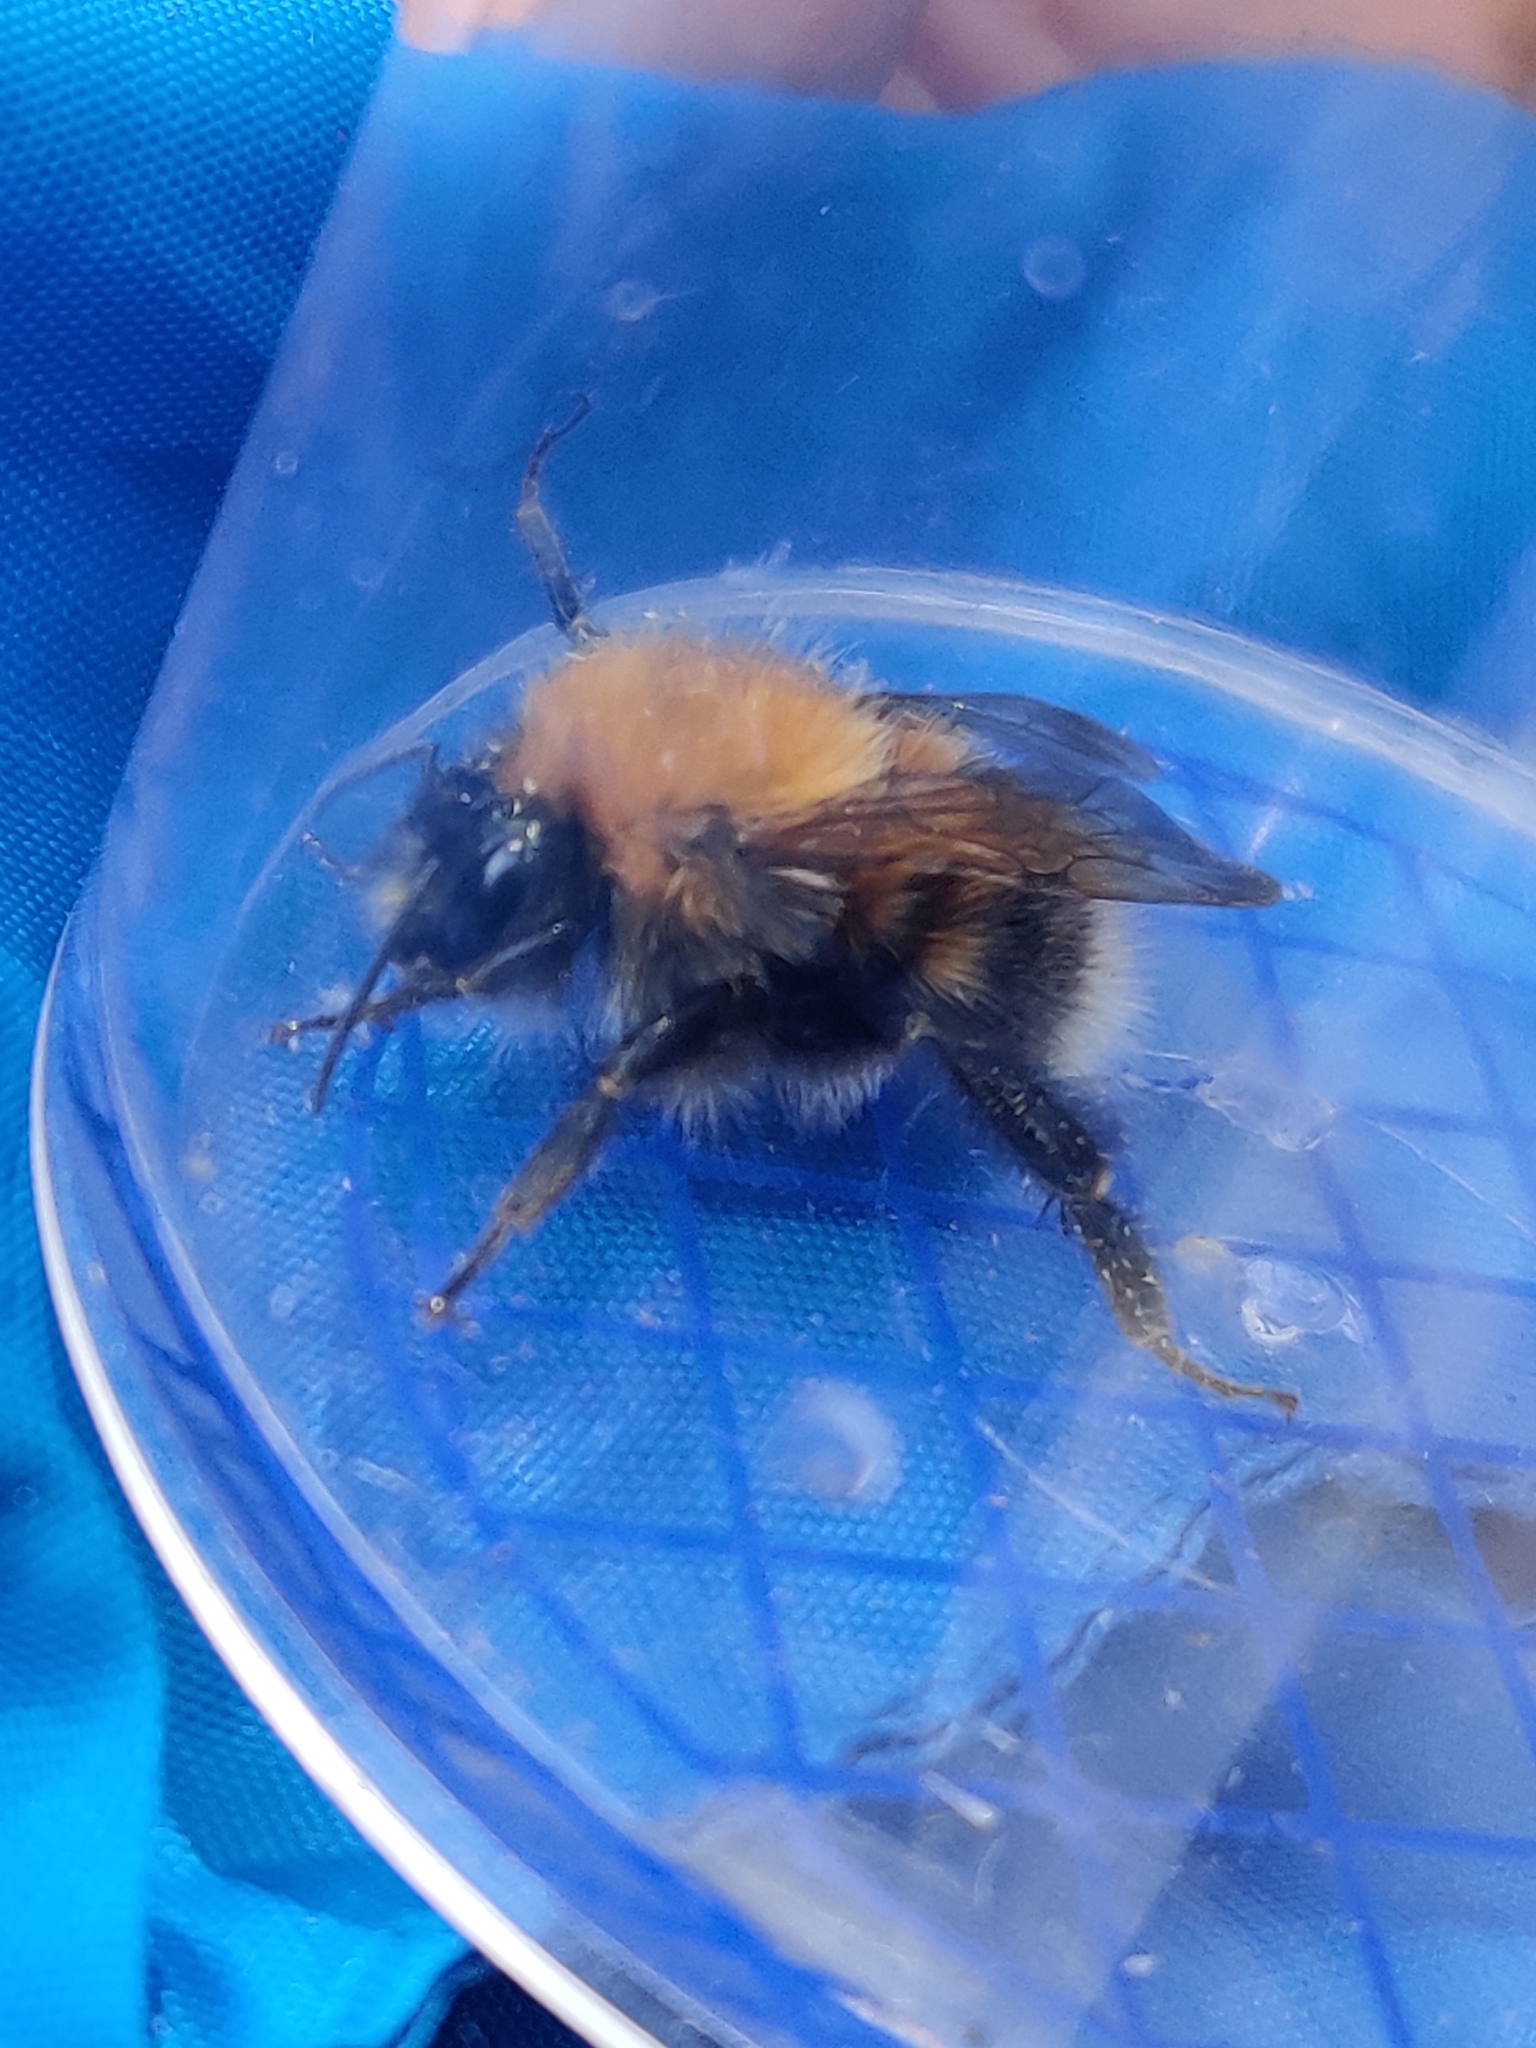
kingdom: Animalia
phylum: Arthropoda
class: Insecta
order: Hymenoptera
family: Apidae
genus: Bombus
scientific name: Bombus hypnorum
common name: New garden bumblebee
